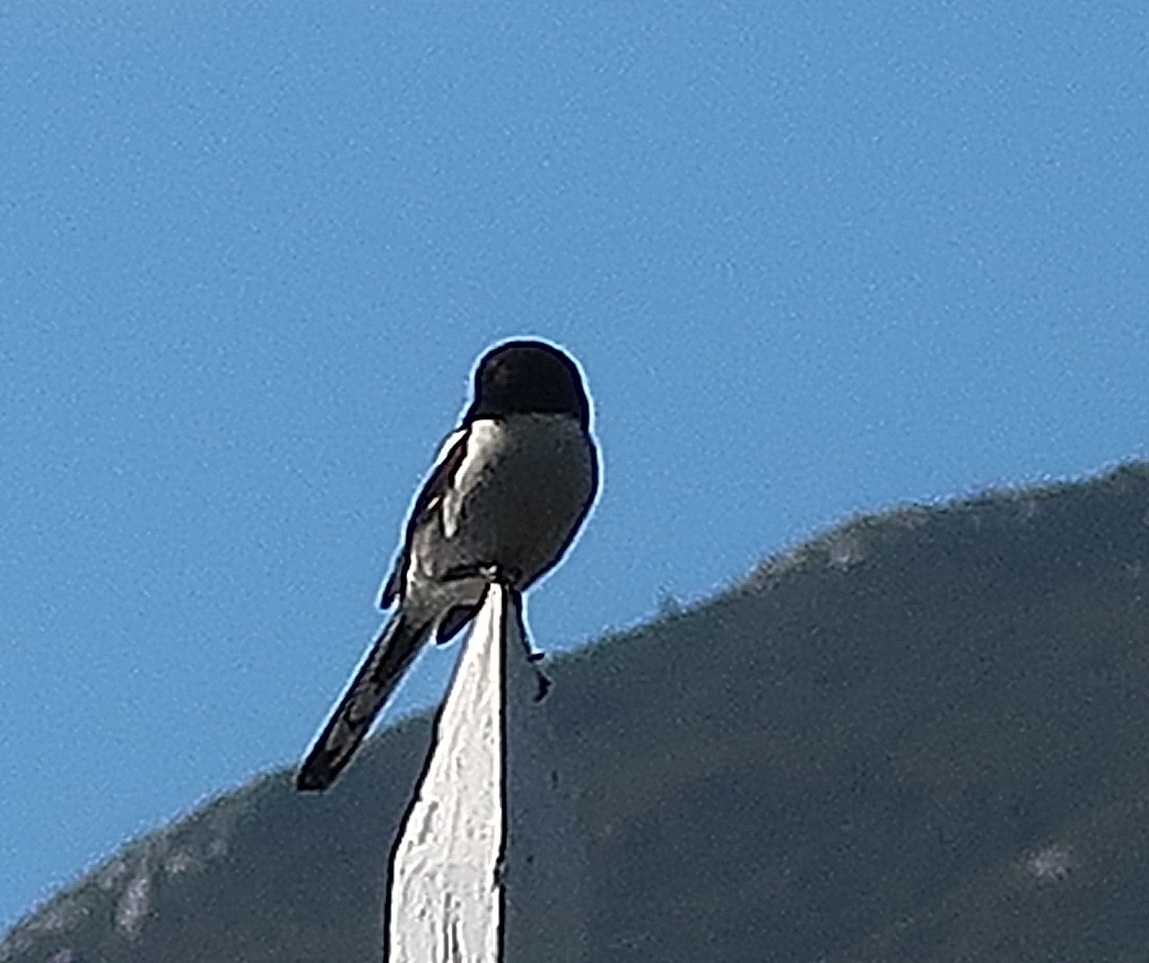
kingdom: Animalia
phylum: Chordata
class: Aves
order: Passeriformes
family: Laniidae
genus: Lanius
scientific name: Lanius collaris
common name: Southern fiscal
